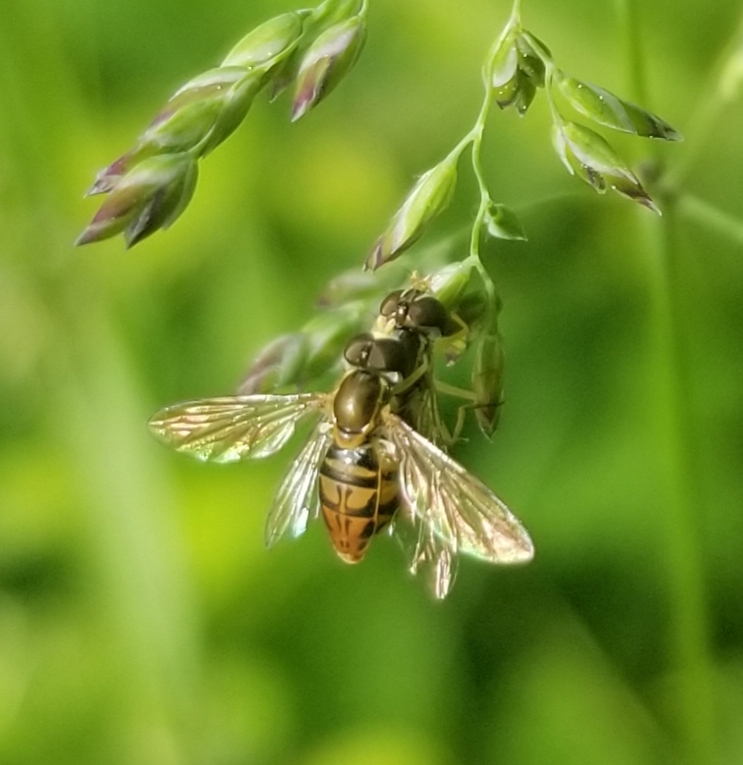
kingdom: Animalia
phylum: Arthropoda
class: Insecta
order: Diptera
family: Syrphidae
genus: Toxomerus
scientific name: Toxomerus marginatus
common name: Syrphid fly
